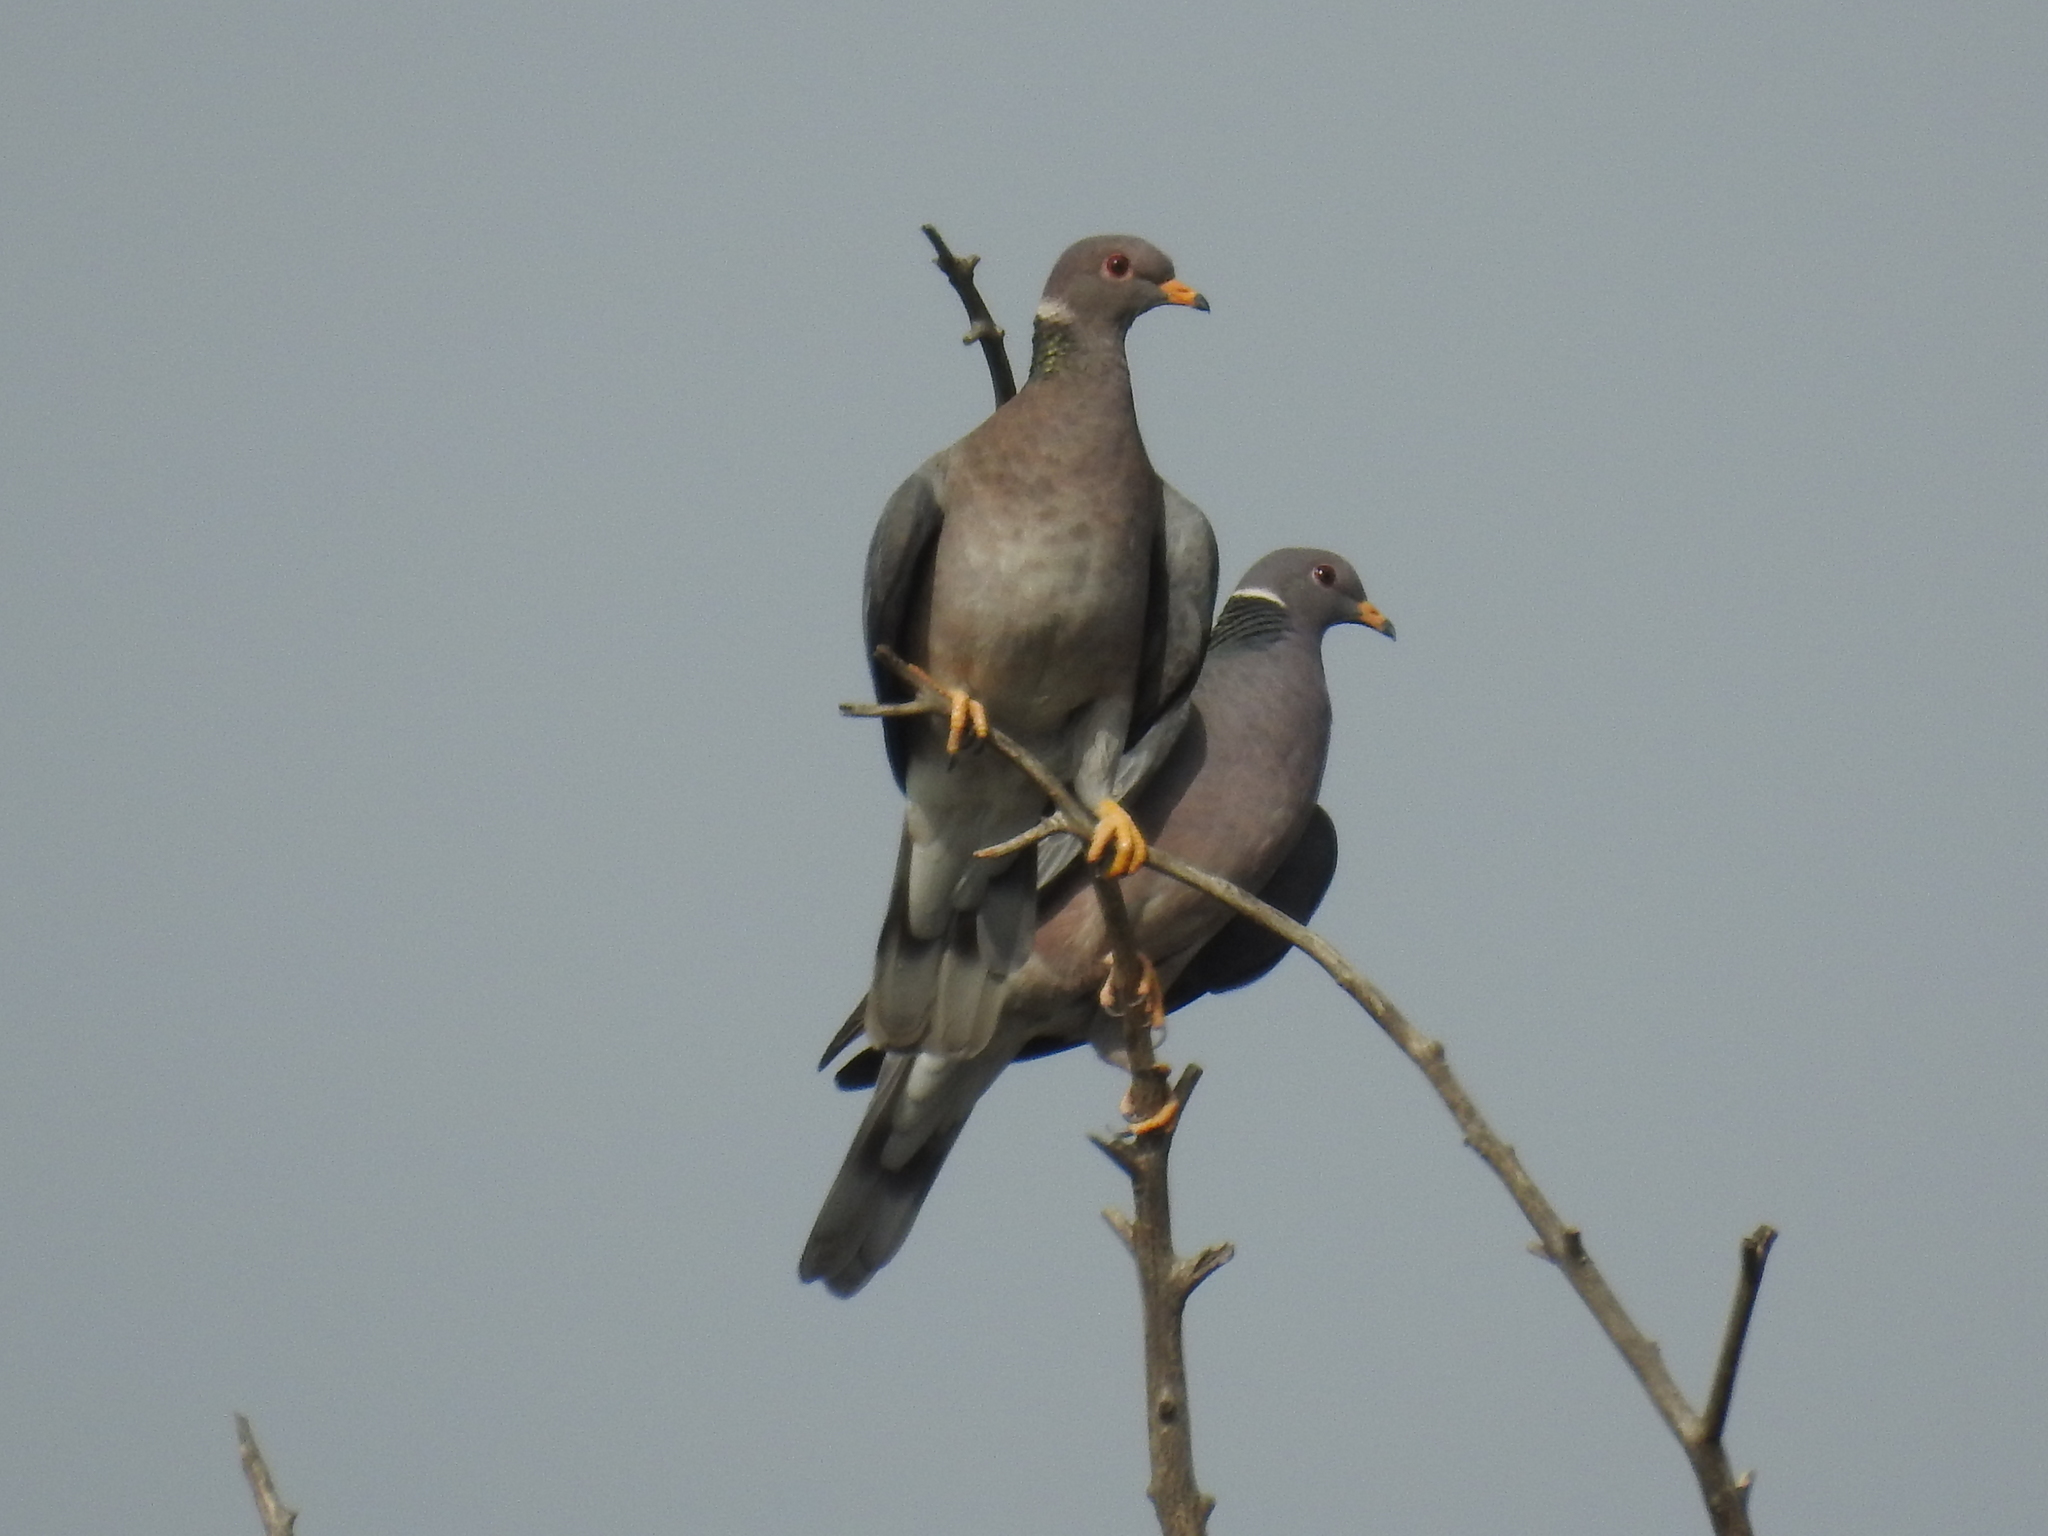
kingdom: Animalia
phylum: Chordata
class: Aves
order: Columbiformes
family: Columbidae
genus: Patagioenas
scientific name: Patagioenas fasciata
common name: Band-tailed pigeon
